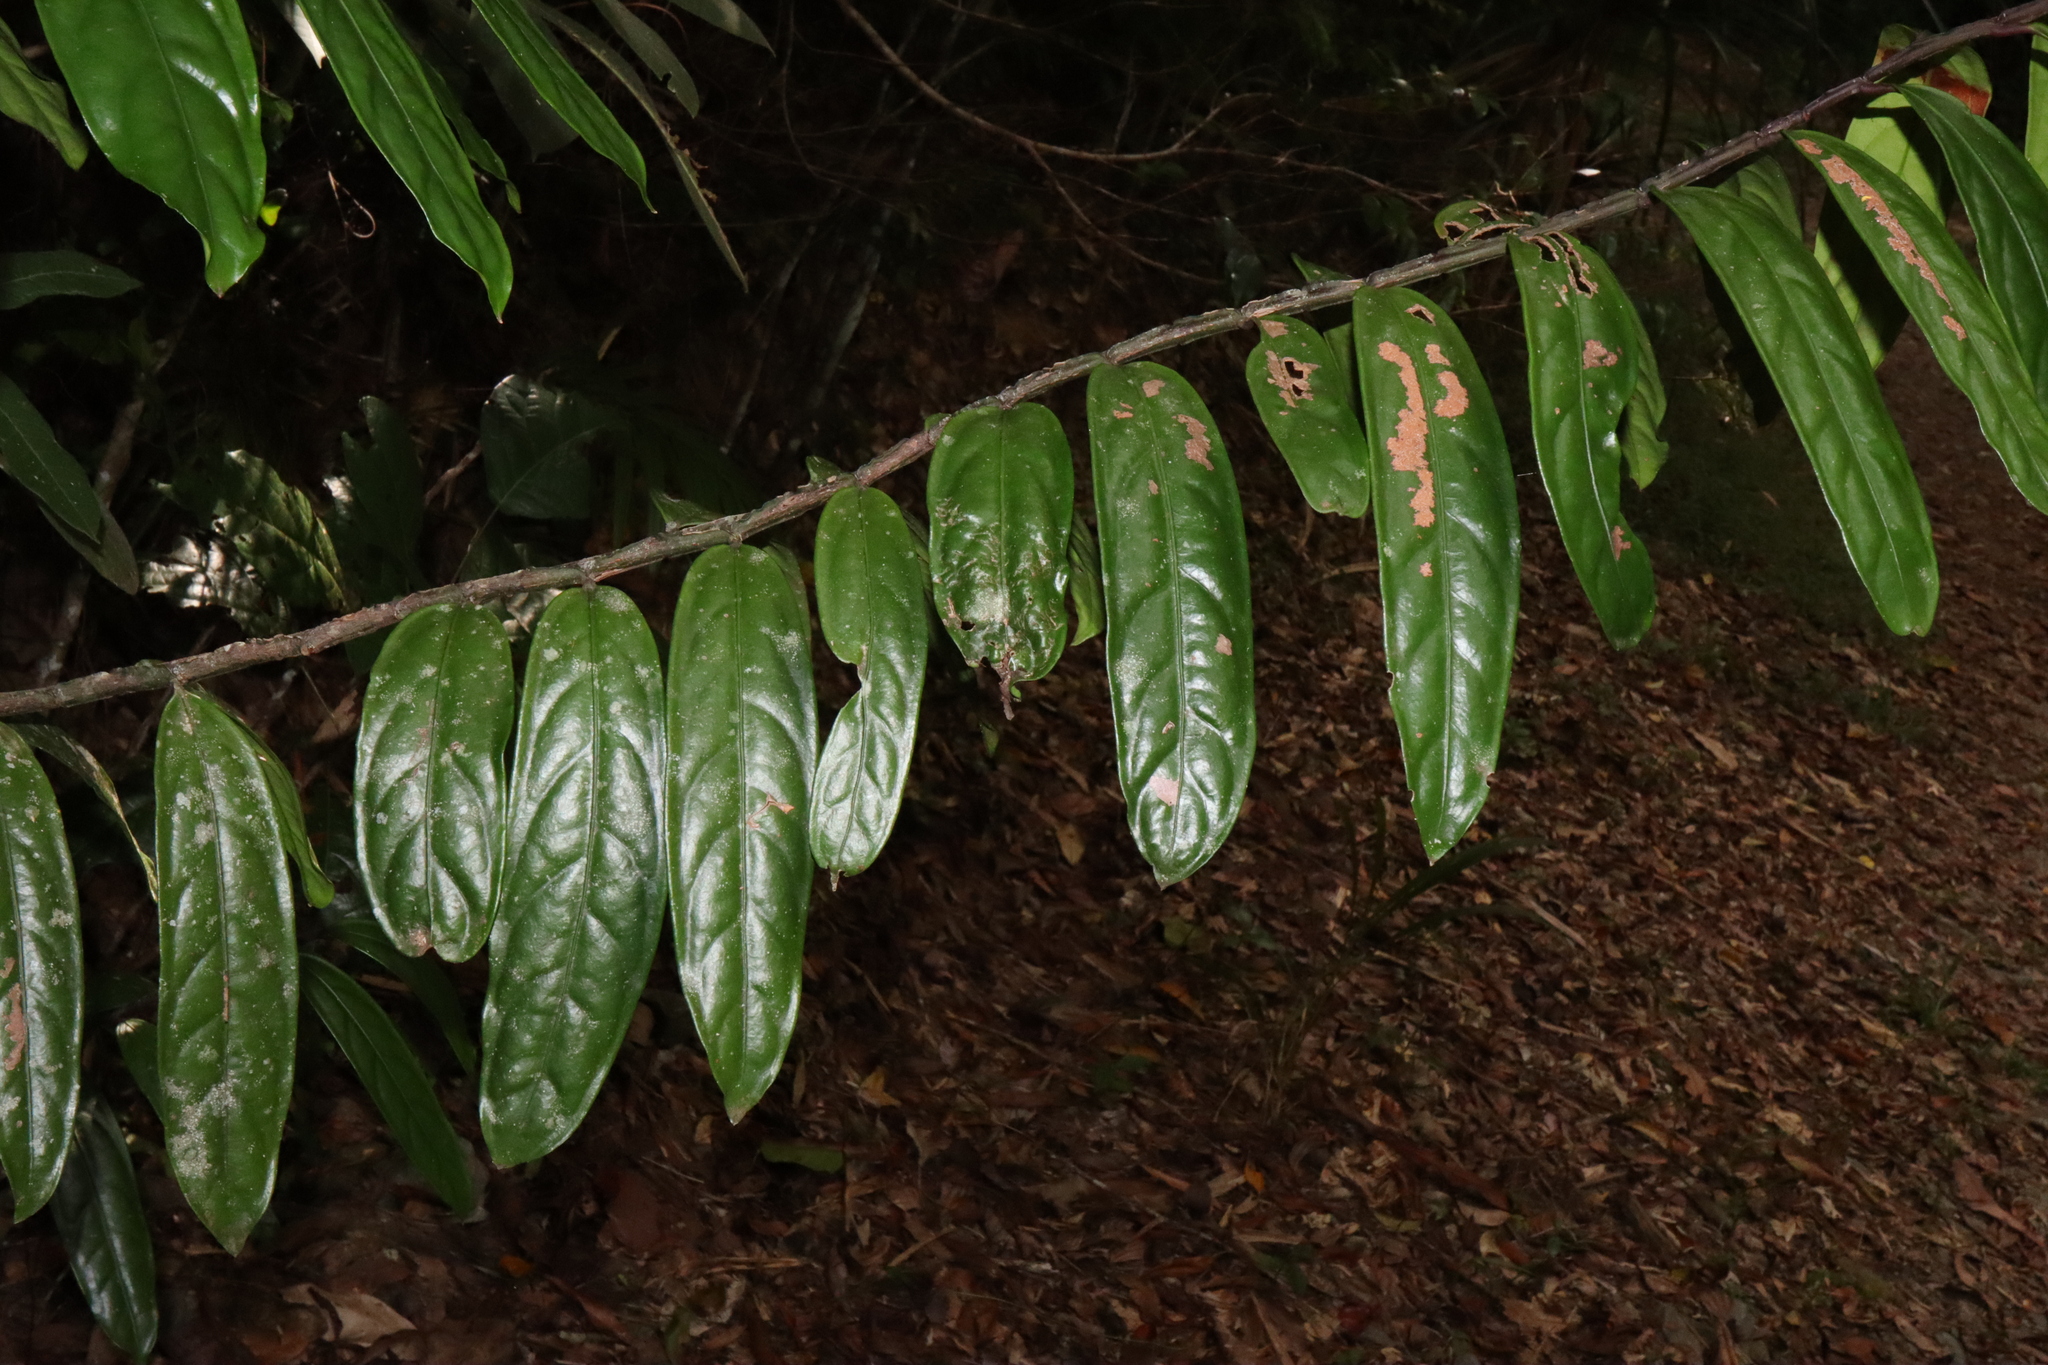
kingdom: Plantae
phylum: Tracheophyta
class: Magnoliopsida
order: Celastrales
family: Celastraceae
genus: Hypsophila
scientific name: Hypsophila dielsiana
